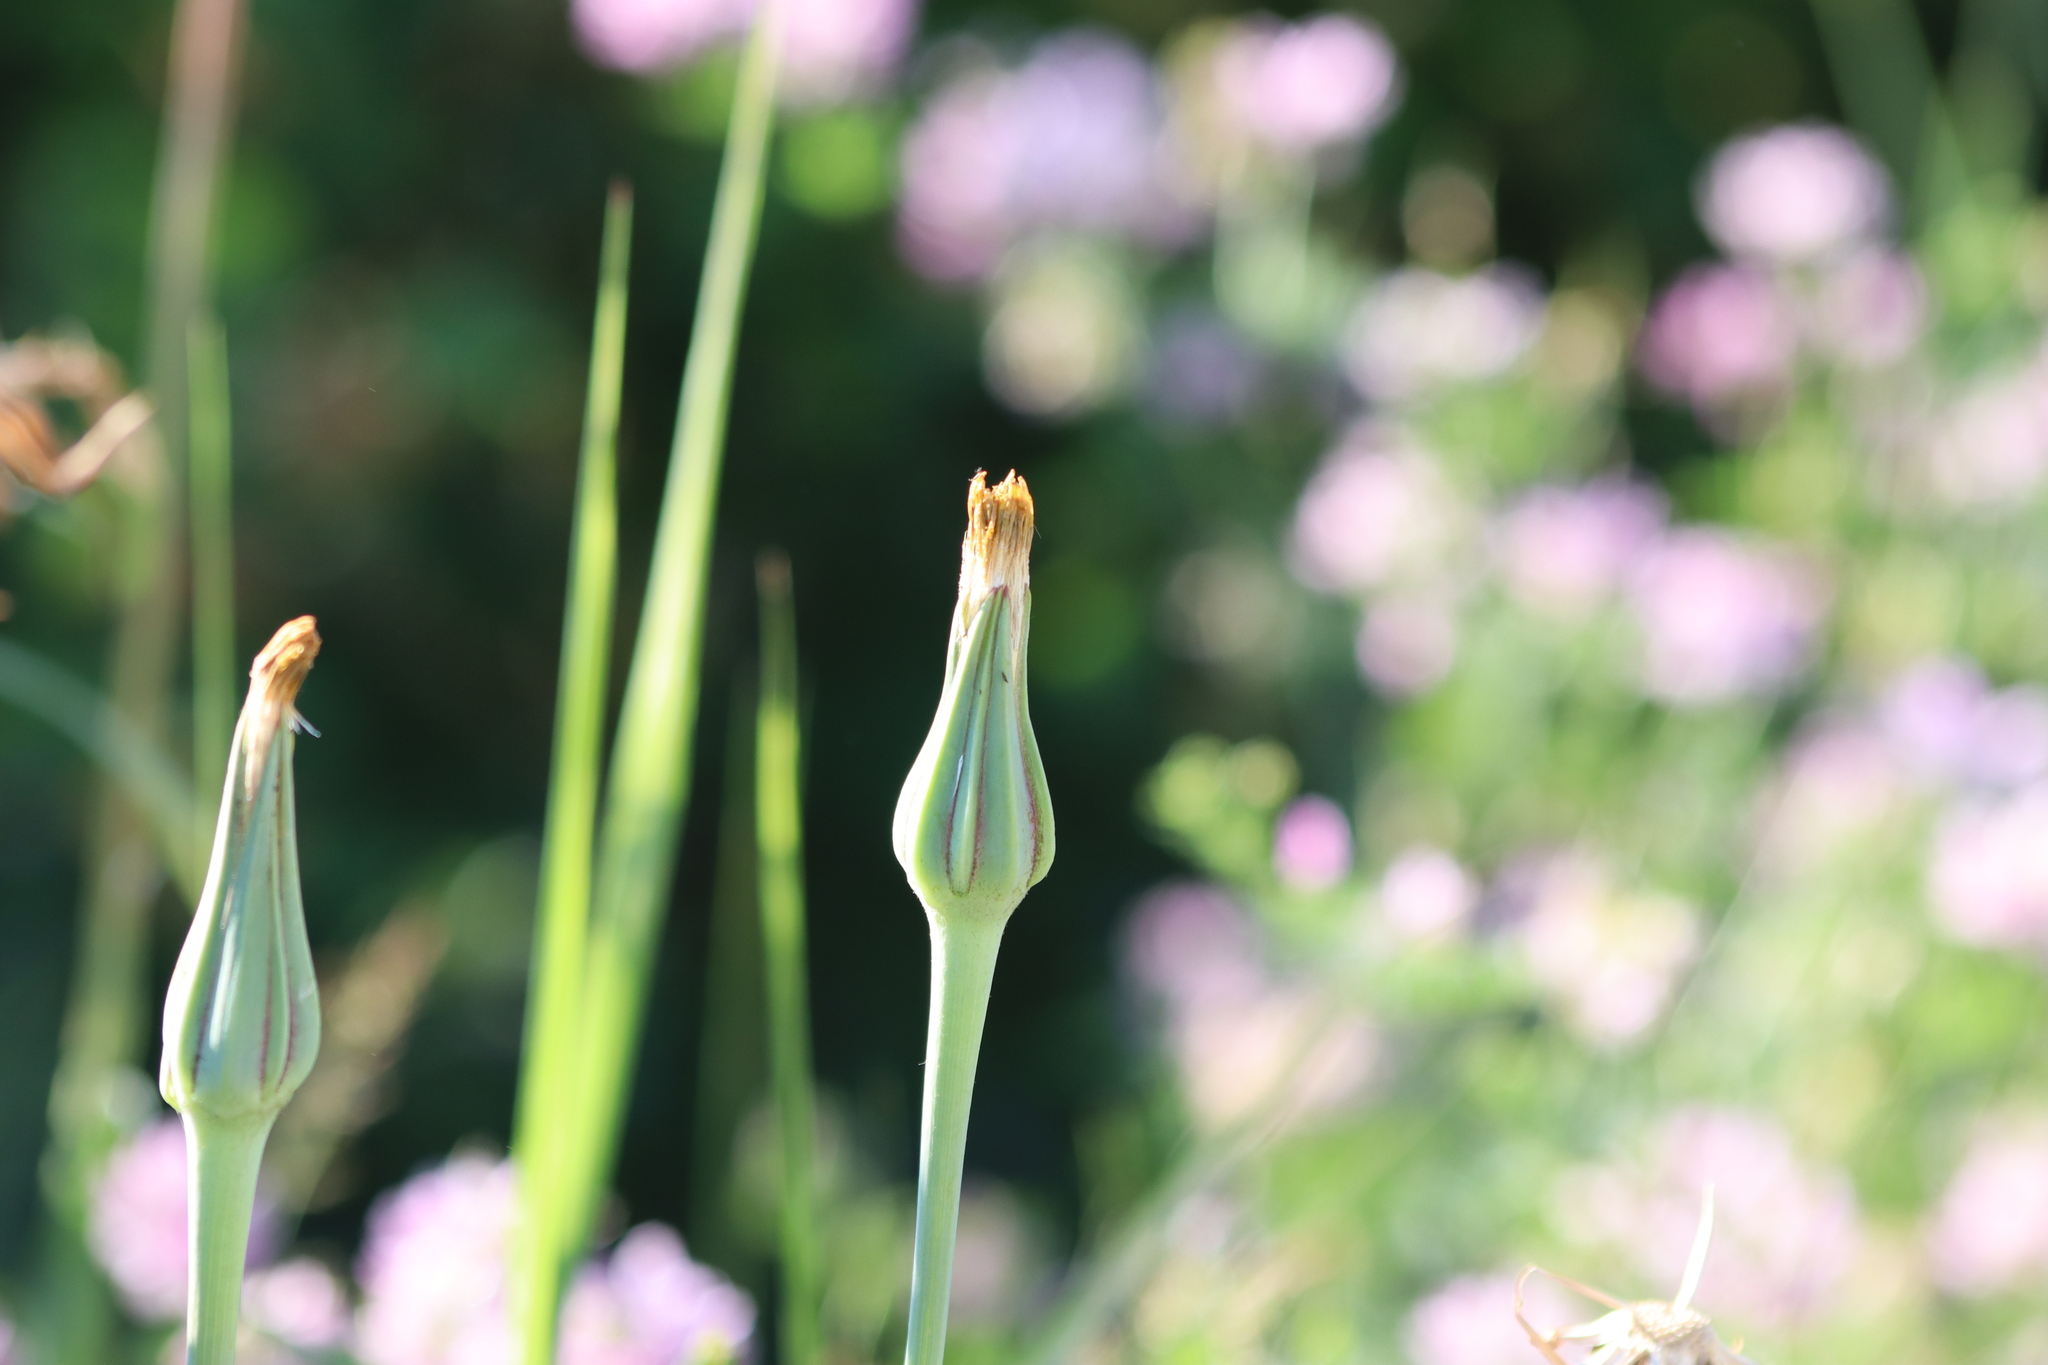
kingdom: Plantae
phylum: Tracheophyta
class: Magnoliopsida
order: Asterales
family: Asteraceae
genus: Tragopogon
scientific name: Tragopogon pratensis
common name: Goat's-beard
